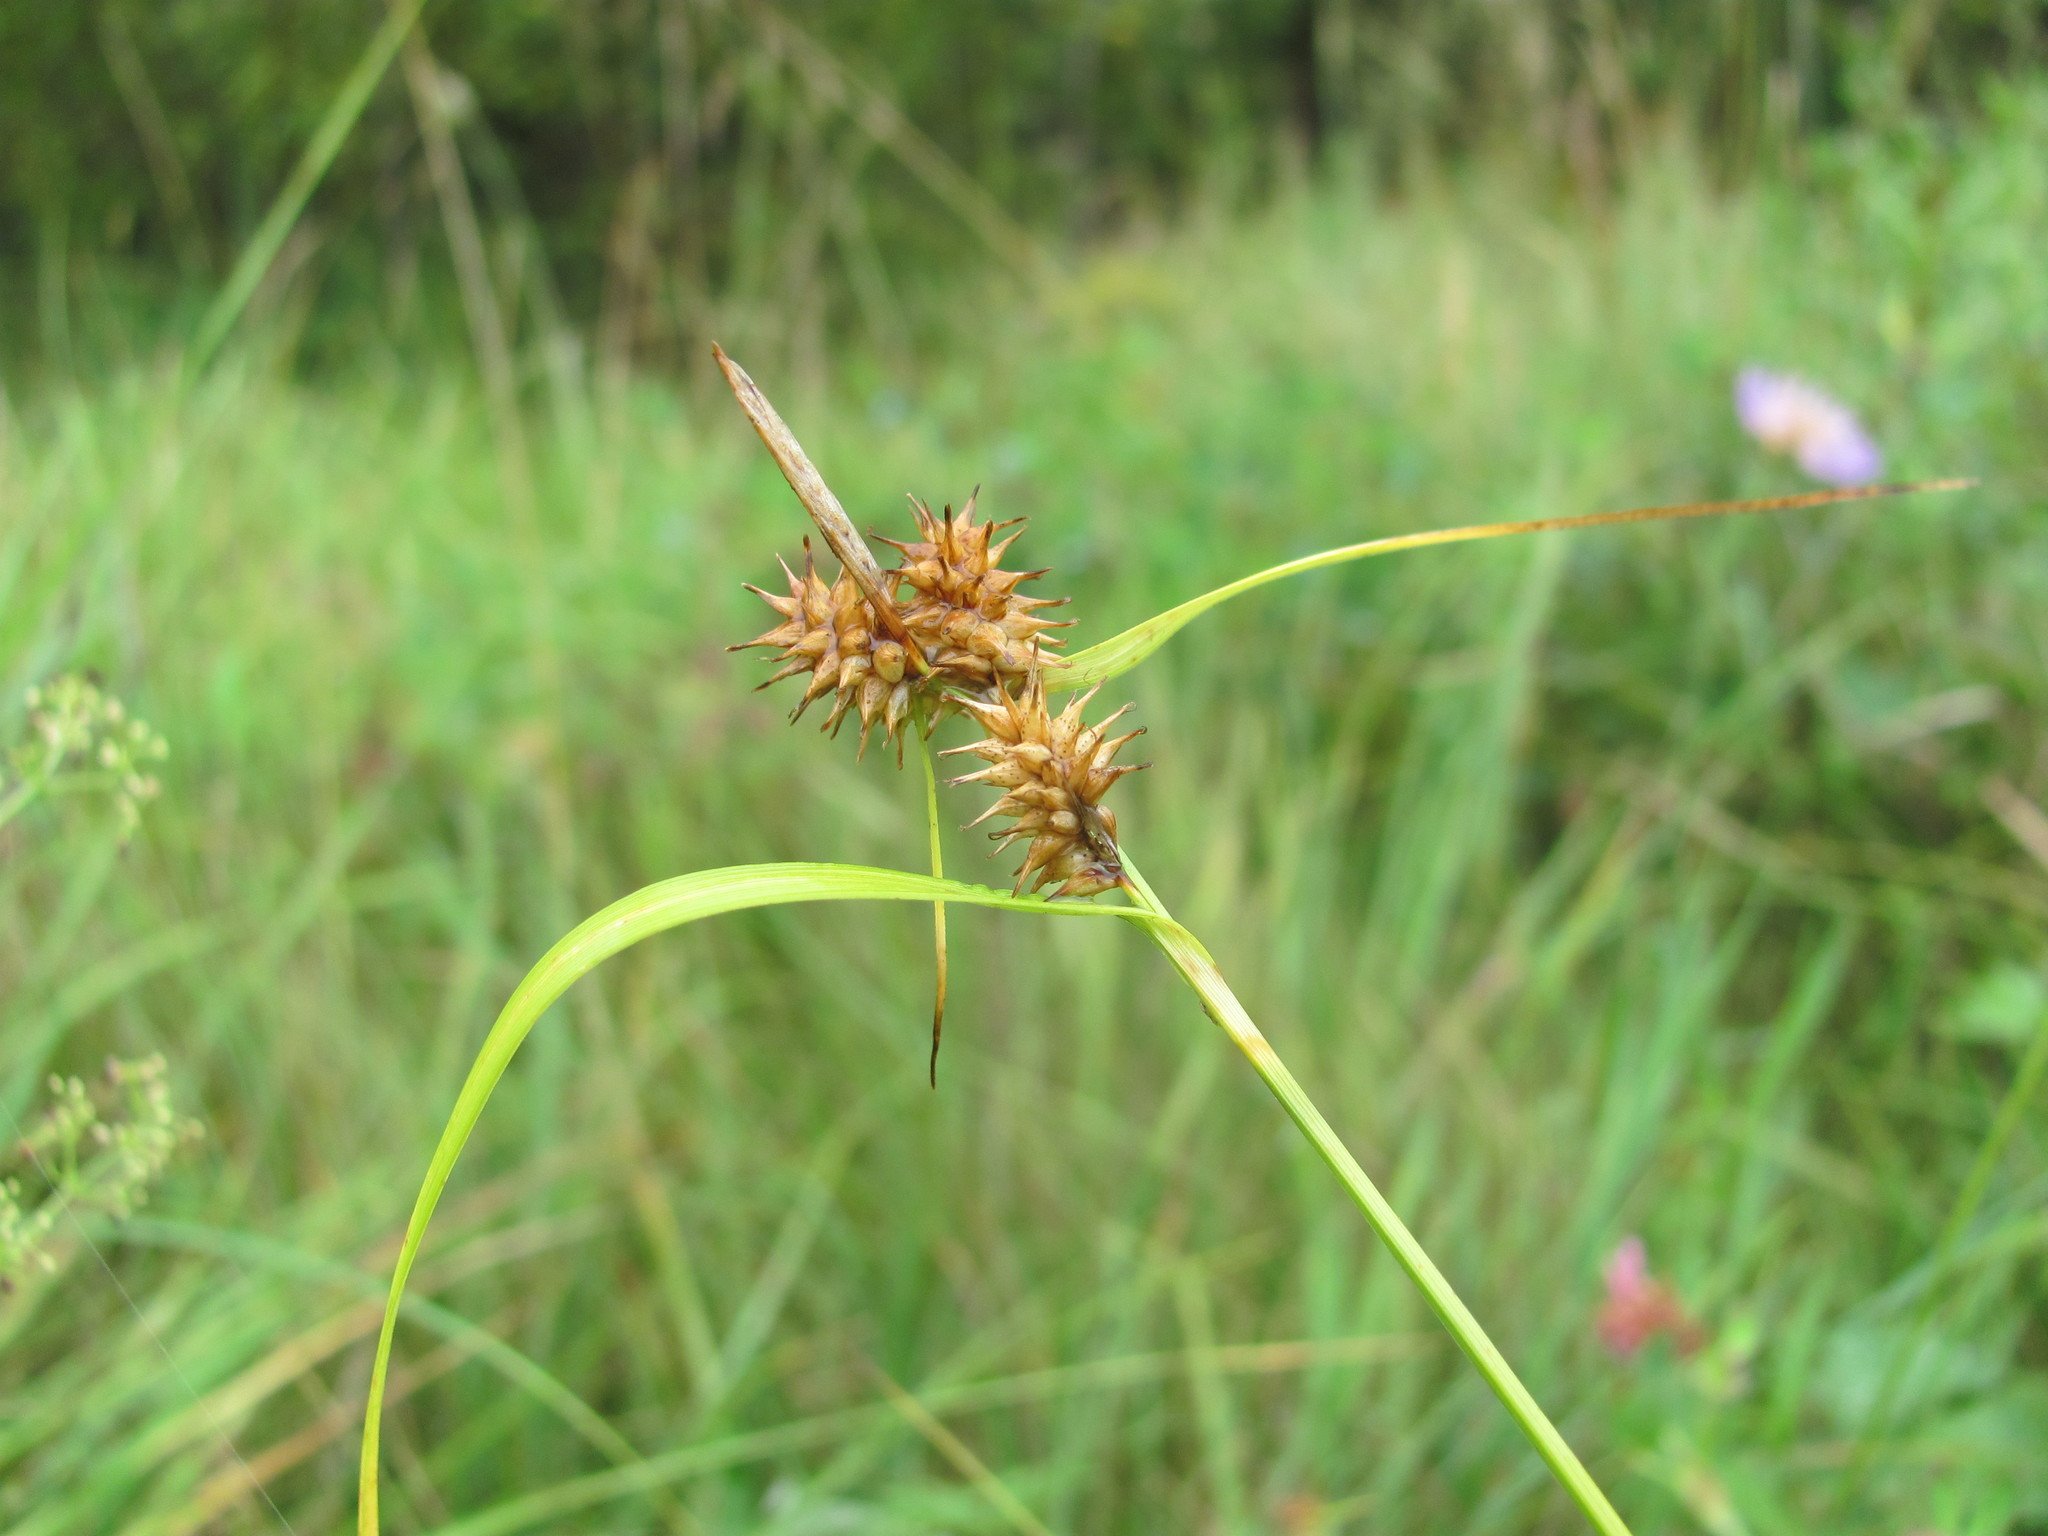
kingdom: Plantae
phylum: Tracheophyta
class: Liliopsida
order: Poales
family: Cyperaceae
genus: Carex
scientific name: Carex flava
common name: Large yellow-sedge
